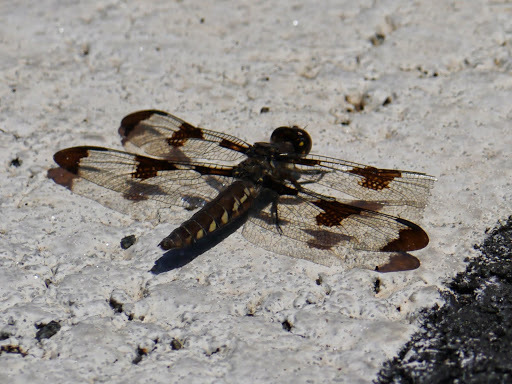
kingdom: Animalia
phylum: Arthropoda
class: Insecta
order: Odonata
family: Libellulidae
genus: Plathemis
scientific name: Plathemis lydia
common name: Common whitetail
